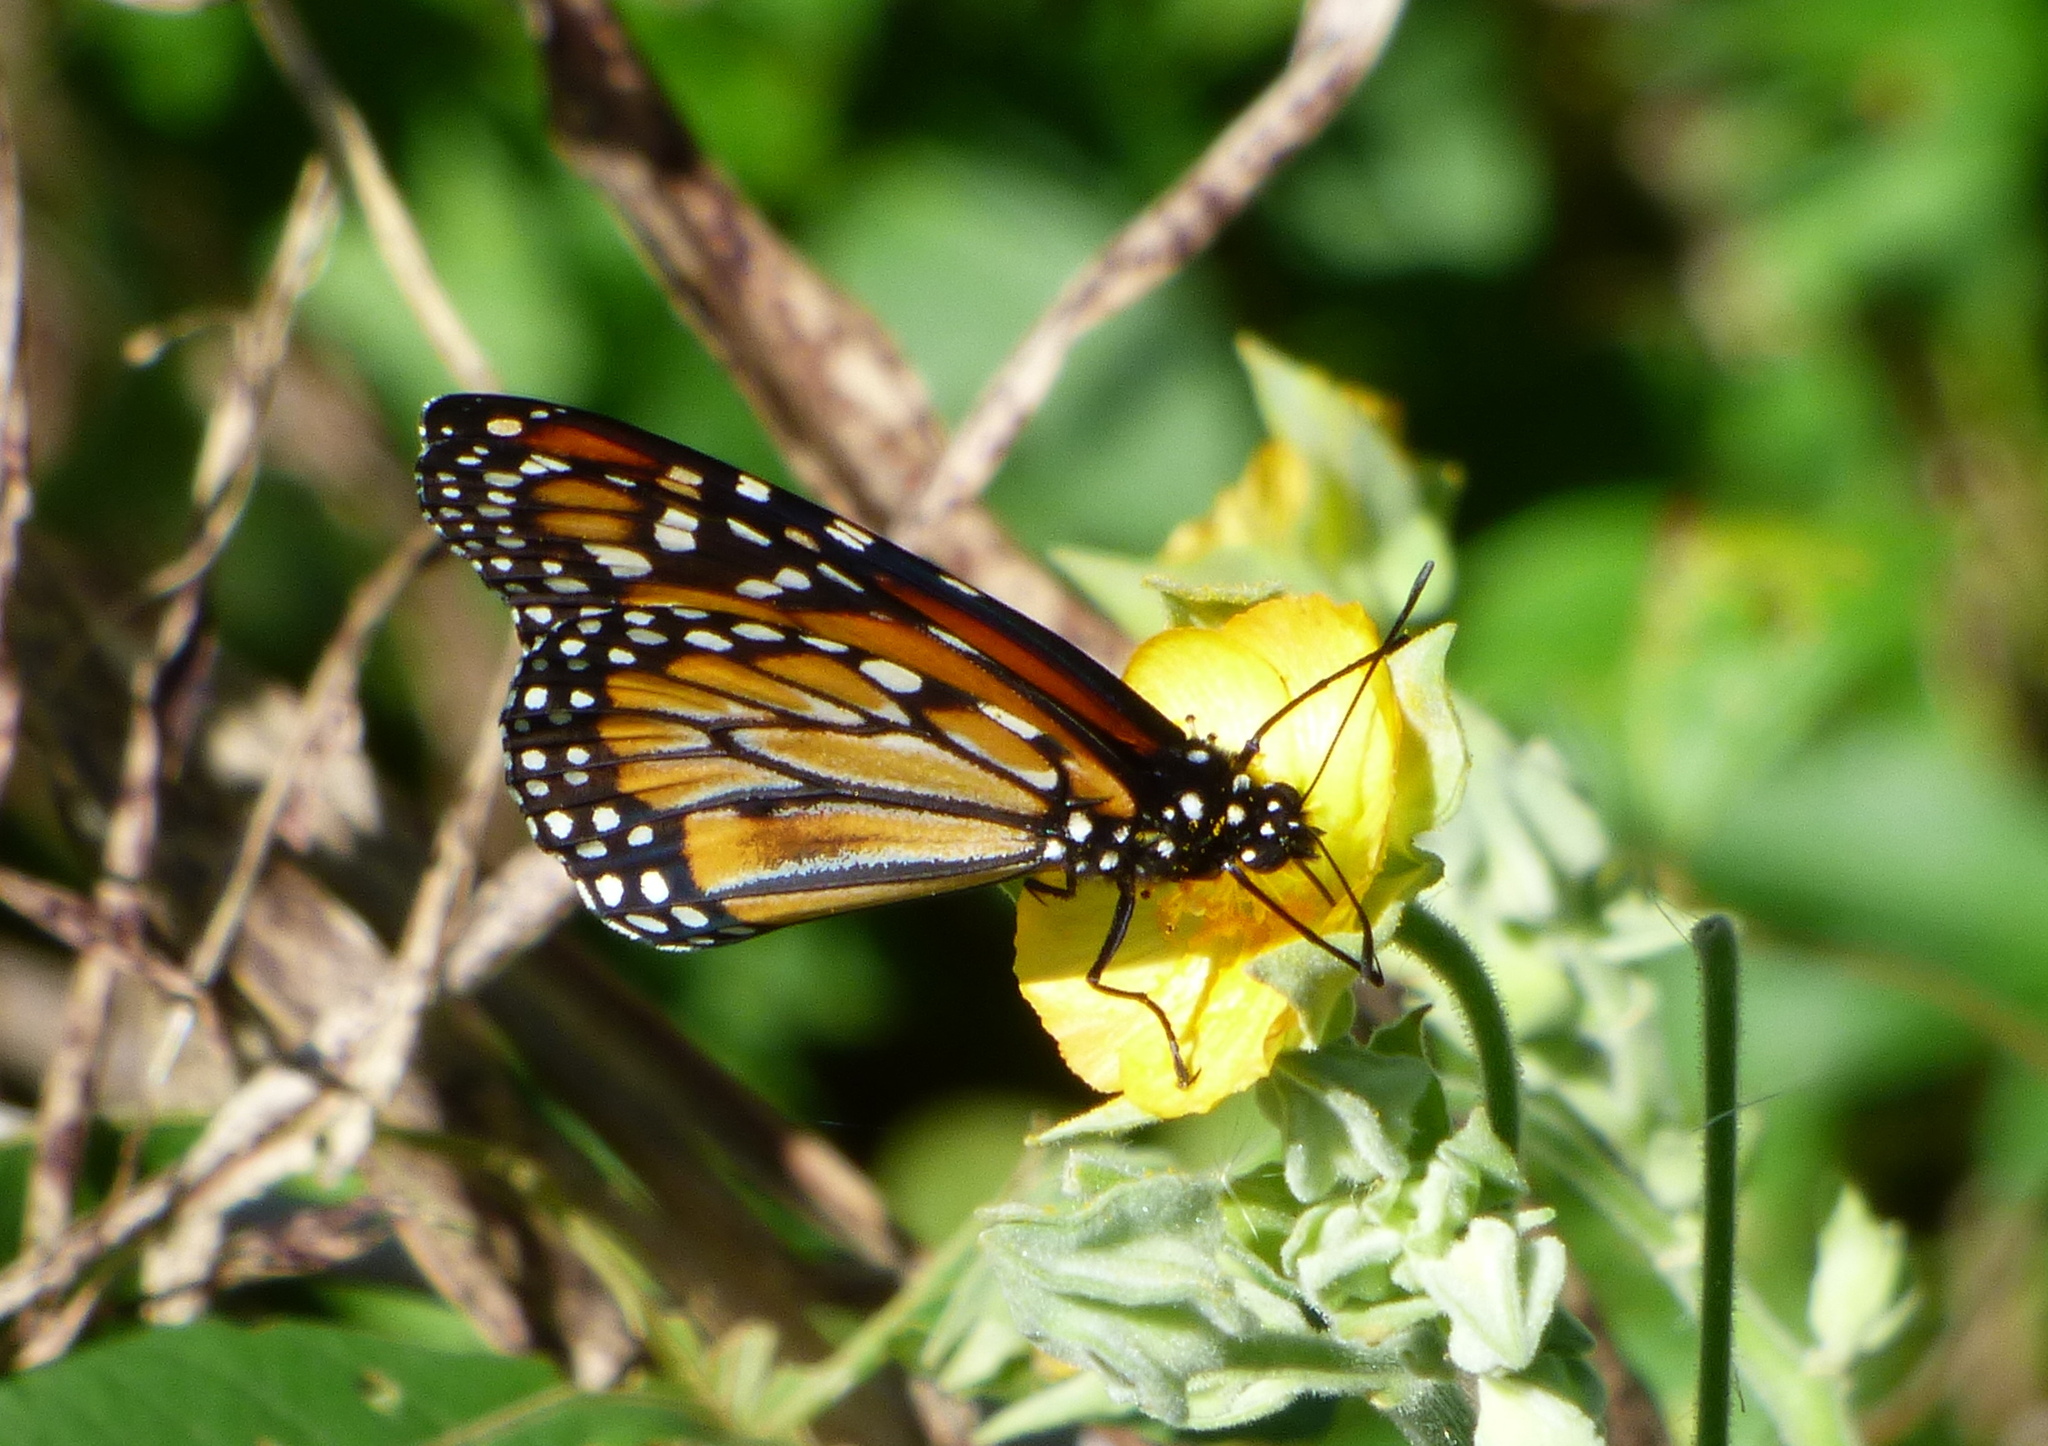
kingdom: Animalia
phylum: Arthropoda
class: Insecta
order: Lepidoptera
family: Nymphalidae
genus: Danaus
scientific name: Danaus erippus
